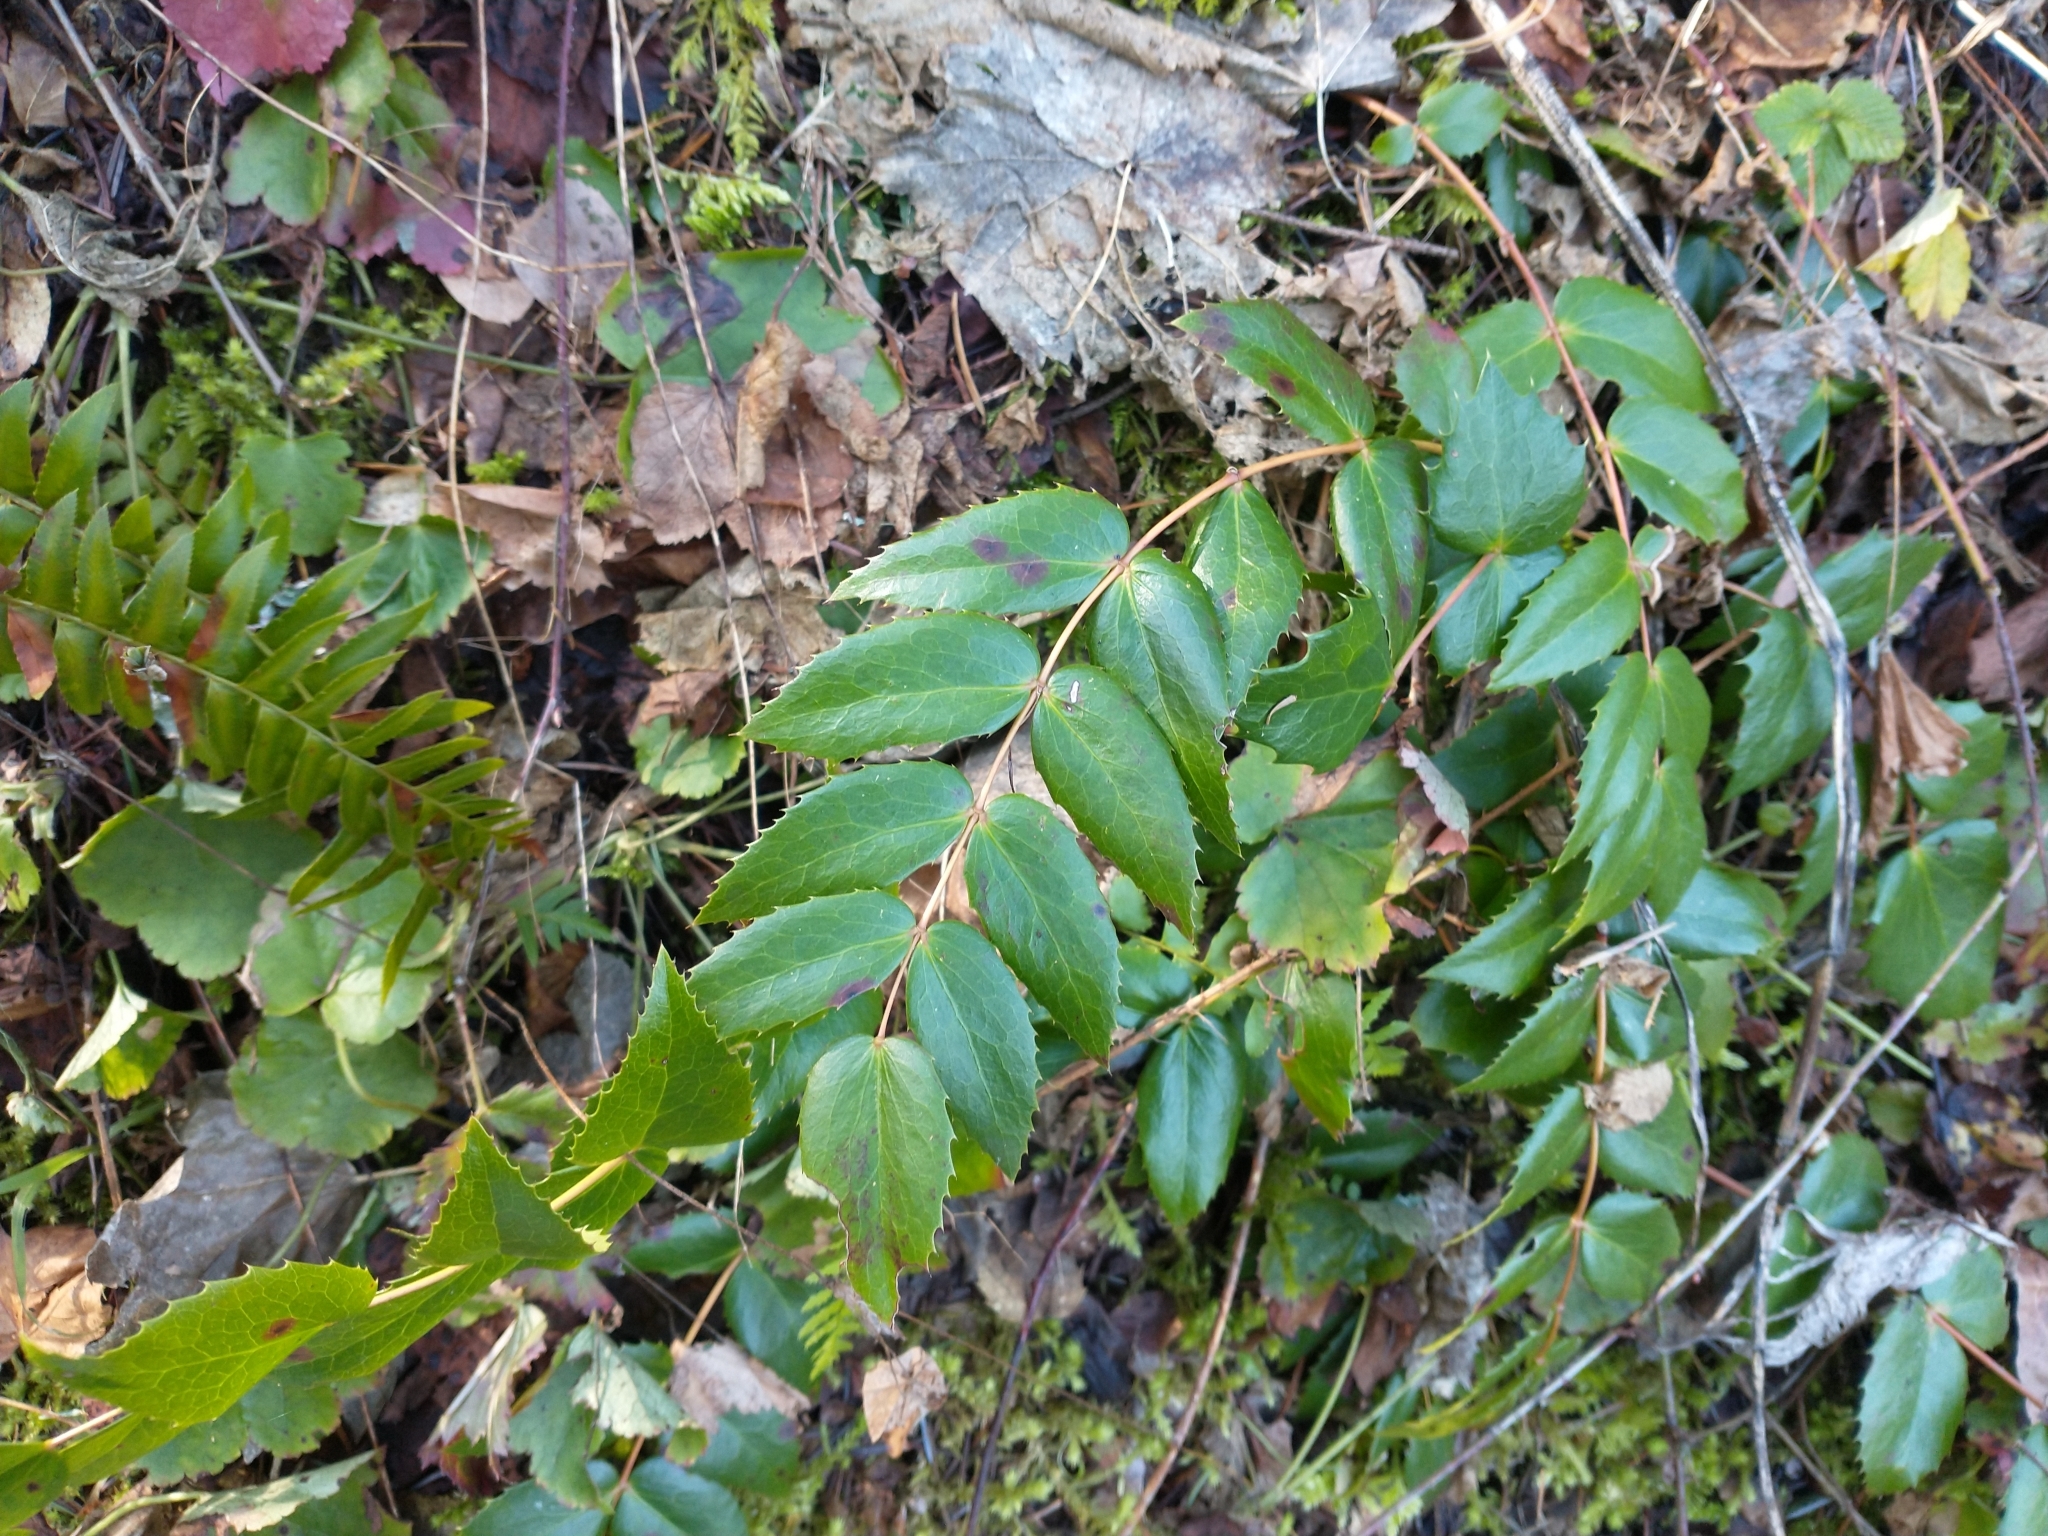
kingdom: Plantae
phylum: Tracheophyta
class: Magnoliopsida
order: Ranunculales
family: Berberidaceae
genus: Mahonia
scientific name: Mahonia nervosa
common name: Cascade oregon-grape
